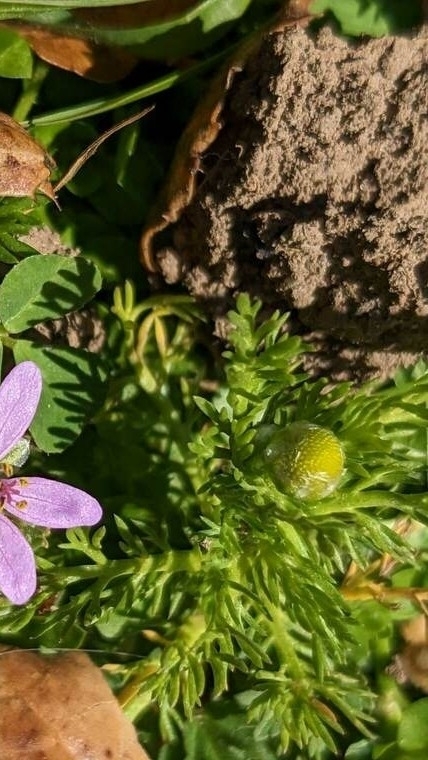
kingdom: Plantae
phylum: Tracheophyta
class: Magnoliopsida
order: Asterales
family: Asteraceae
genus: Matricaria
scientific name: Matricaria discoidea
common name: Disc mayweed
